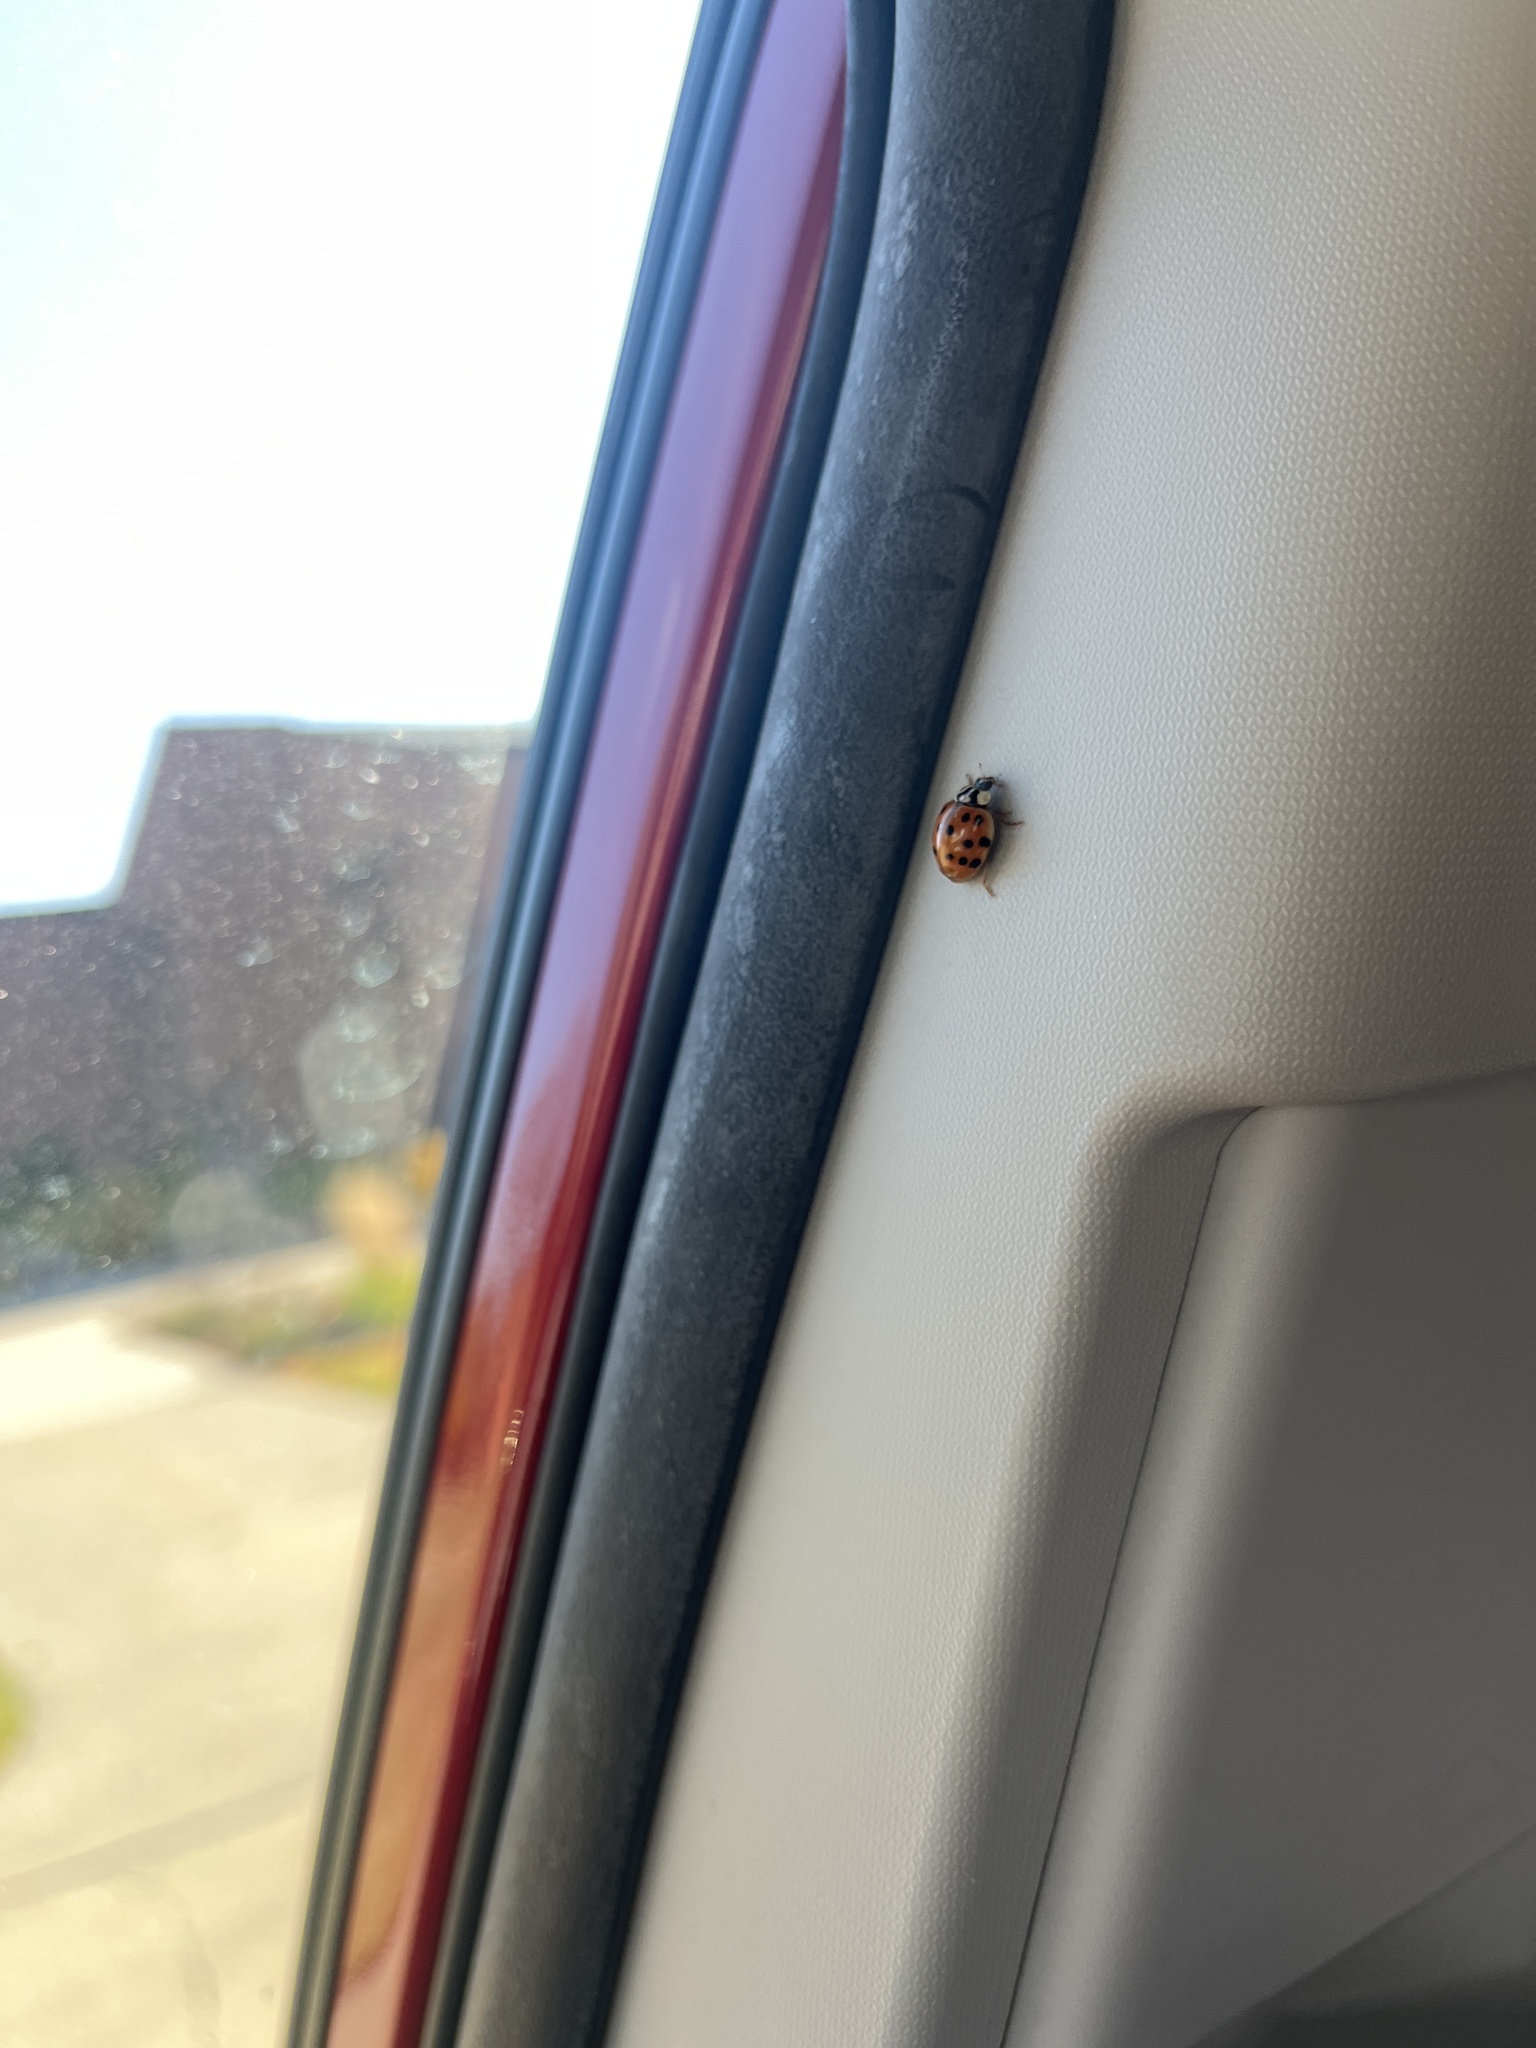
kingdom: Animalia
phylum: Arthropoda
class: Insecta
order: Coleoptera
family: Coccinellidae
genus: Harmonia
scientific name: Harmonia axyridis
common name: Harlequin ladybird
